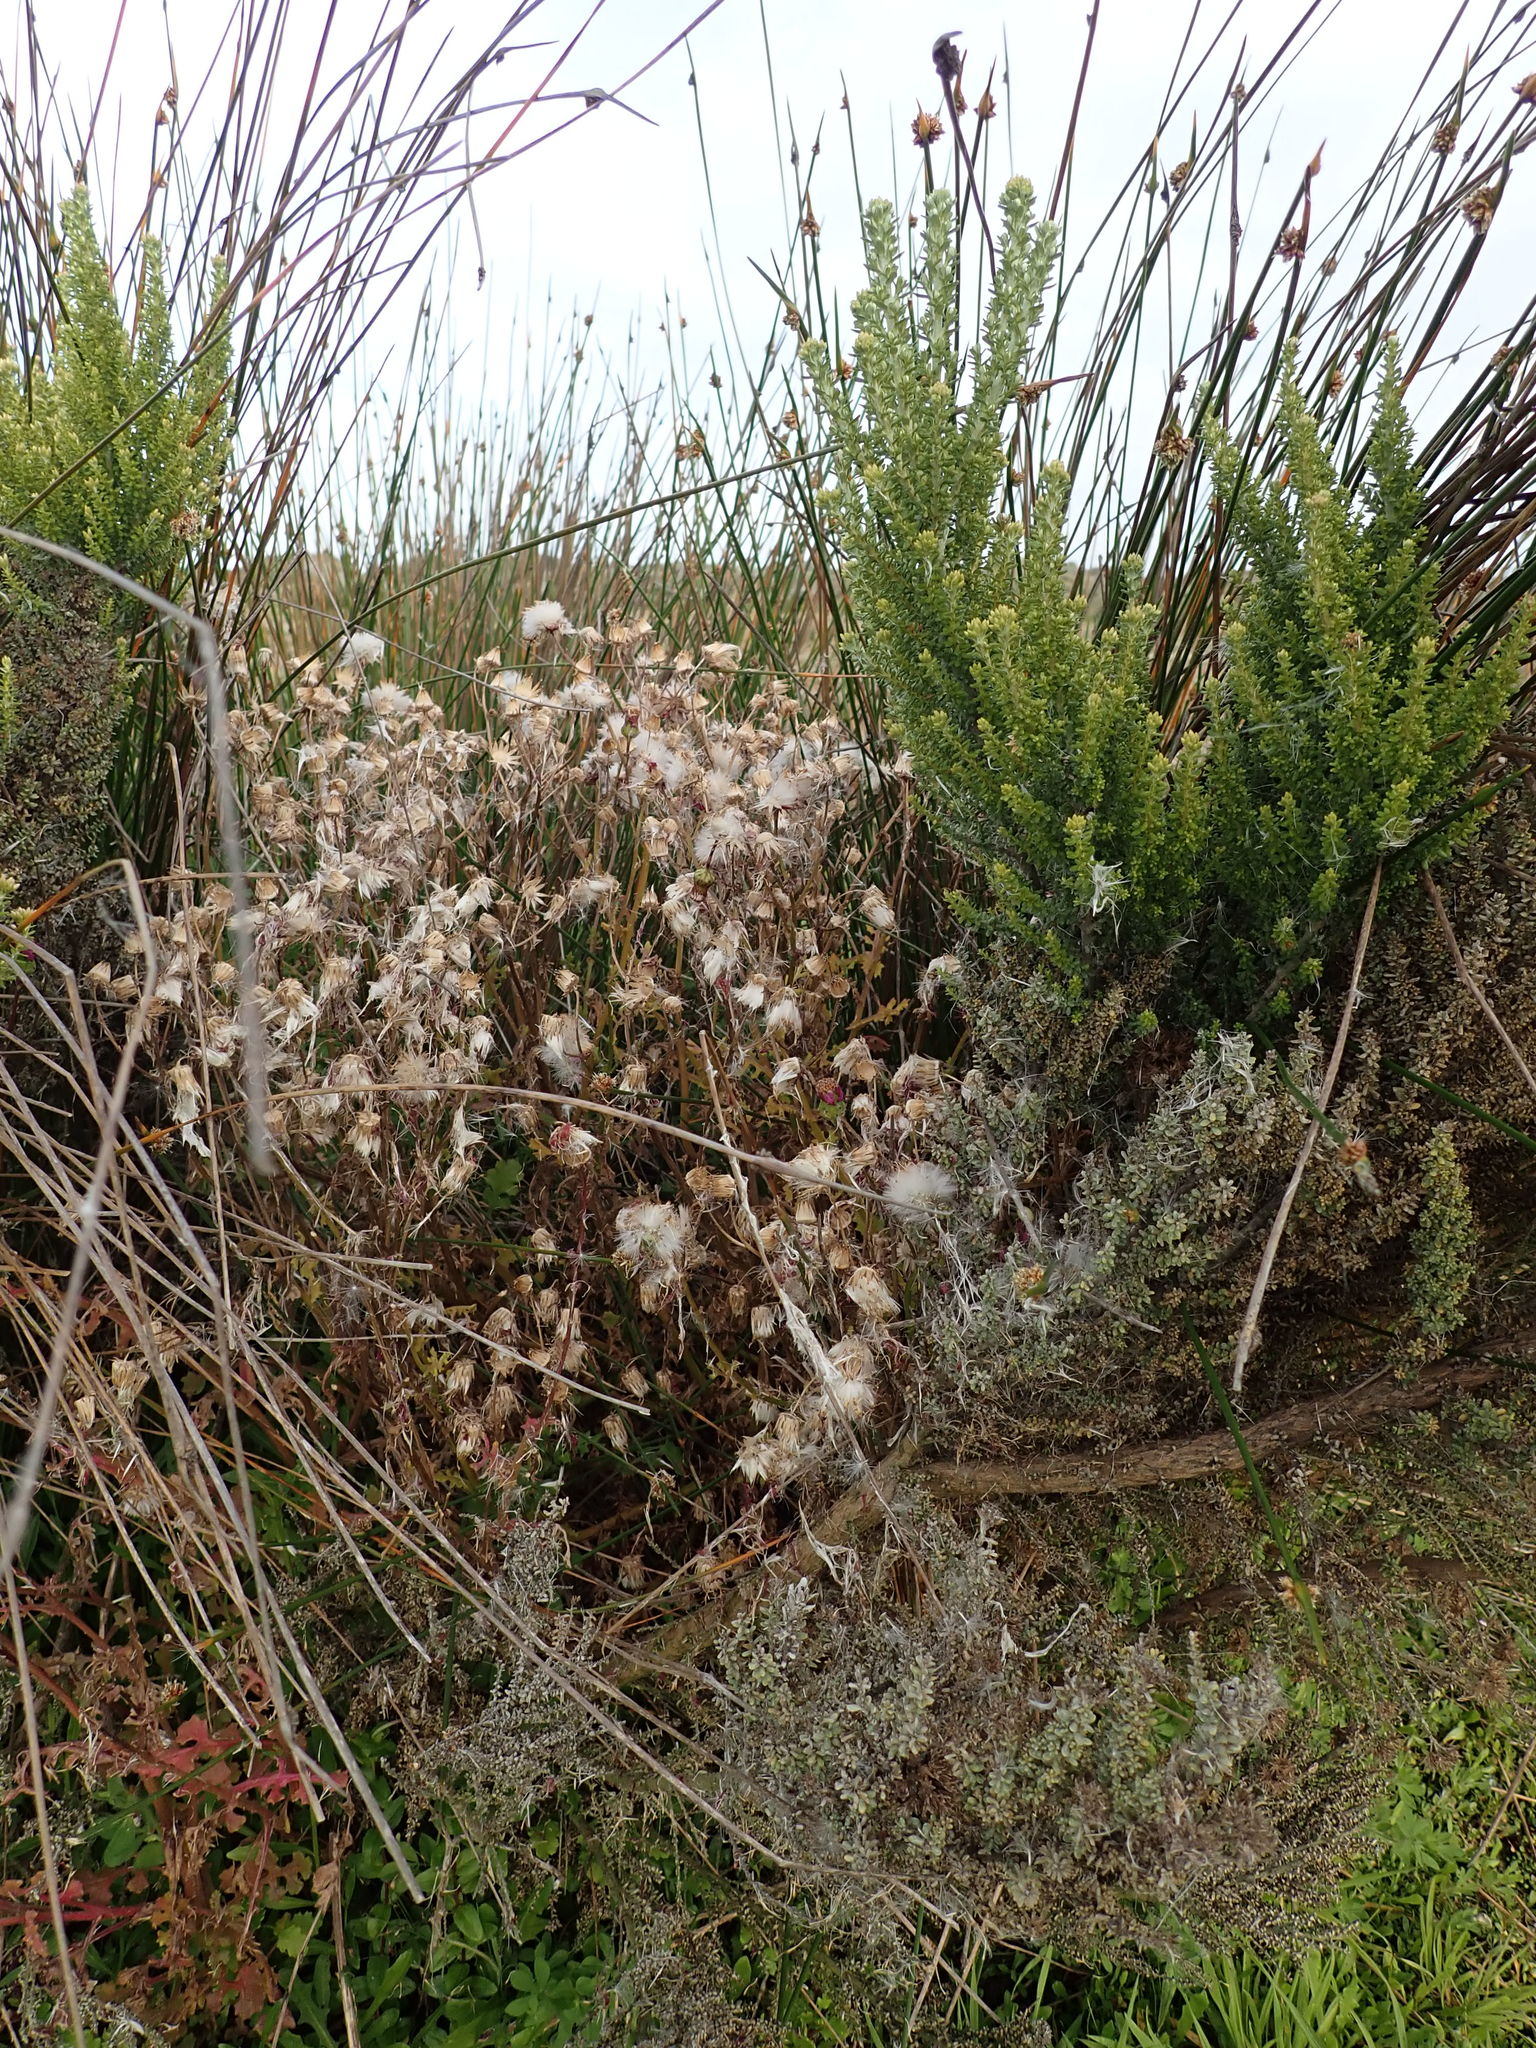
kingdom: Plantae
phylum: Tracheophyta
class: Magnoliopsida
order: Asterales
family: Asteraceae
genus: Senecio
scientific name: Senecio elegans
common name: Purple groundsel
